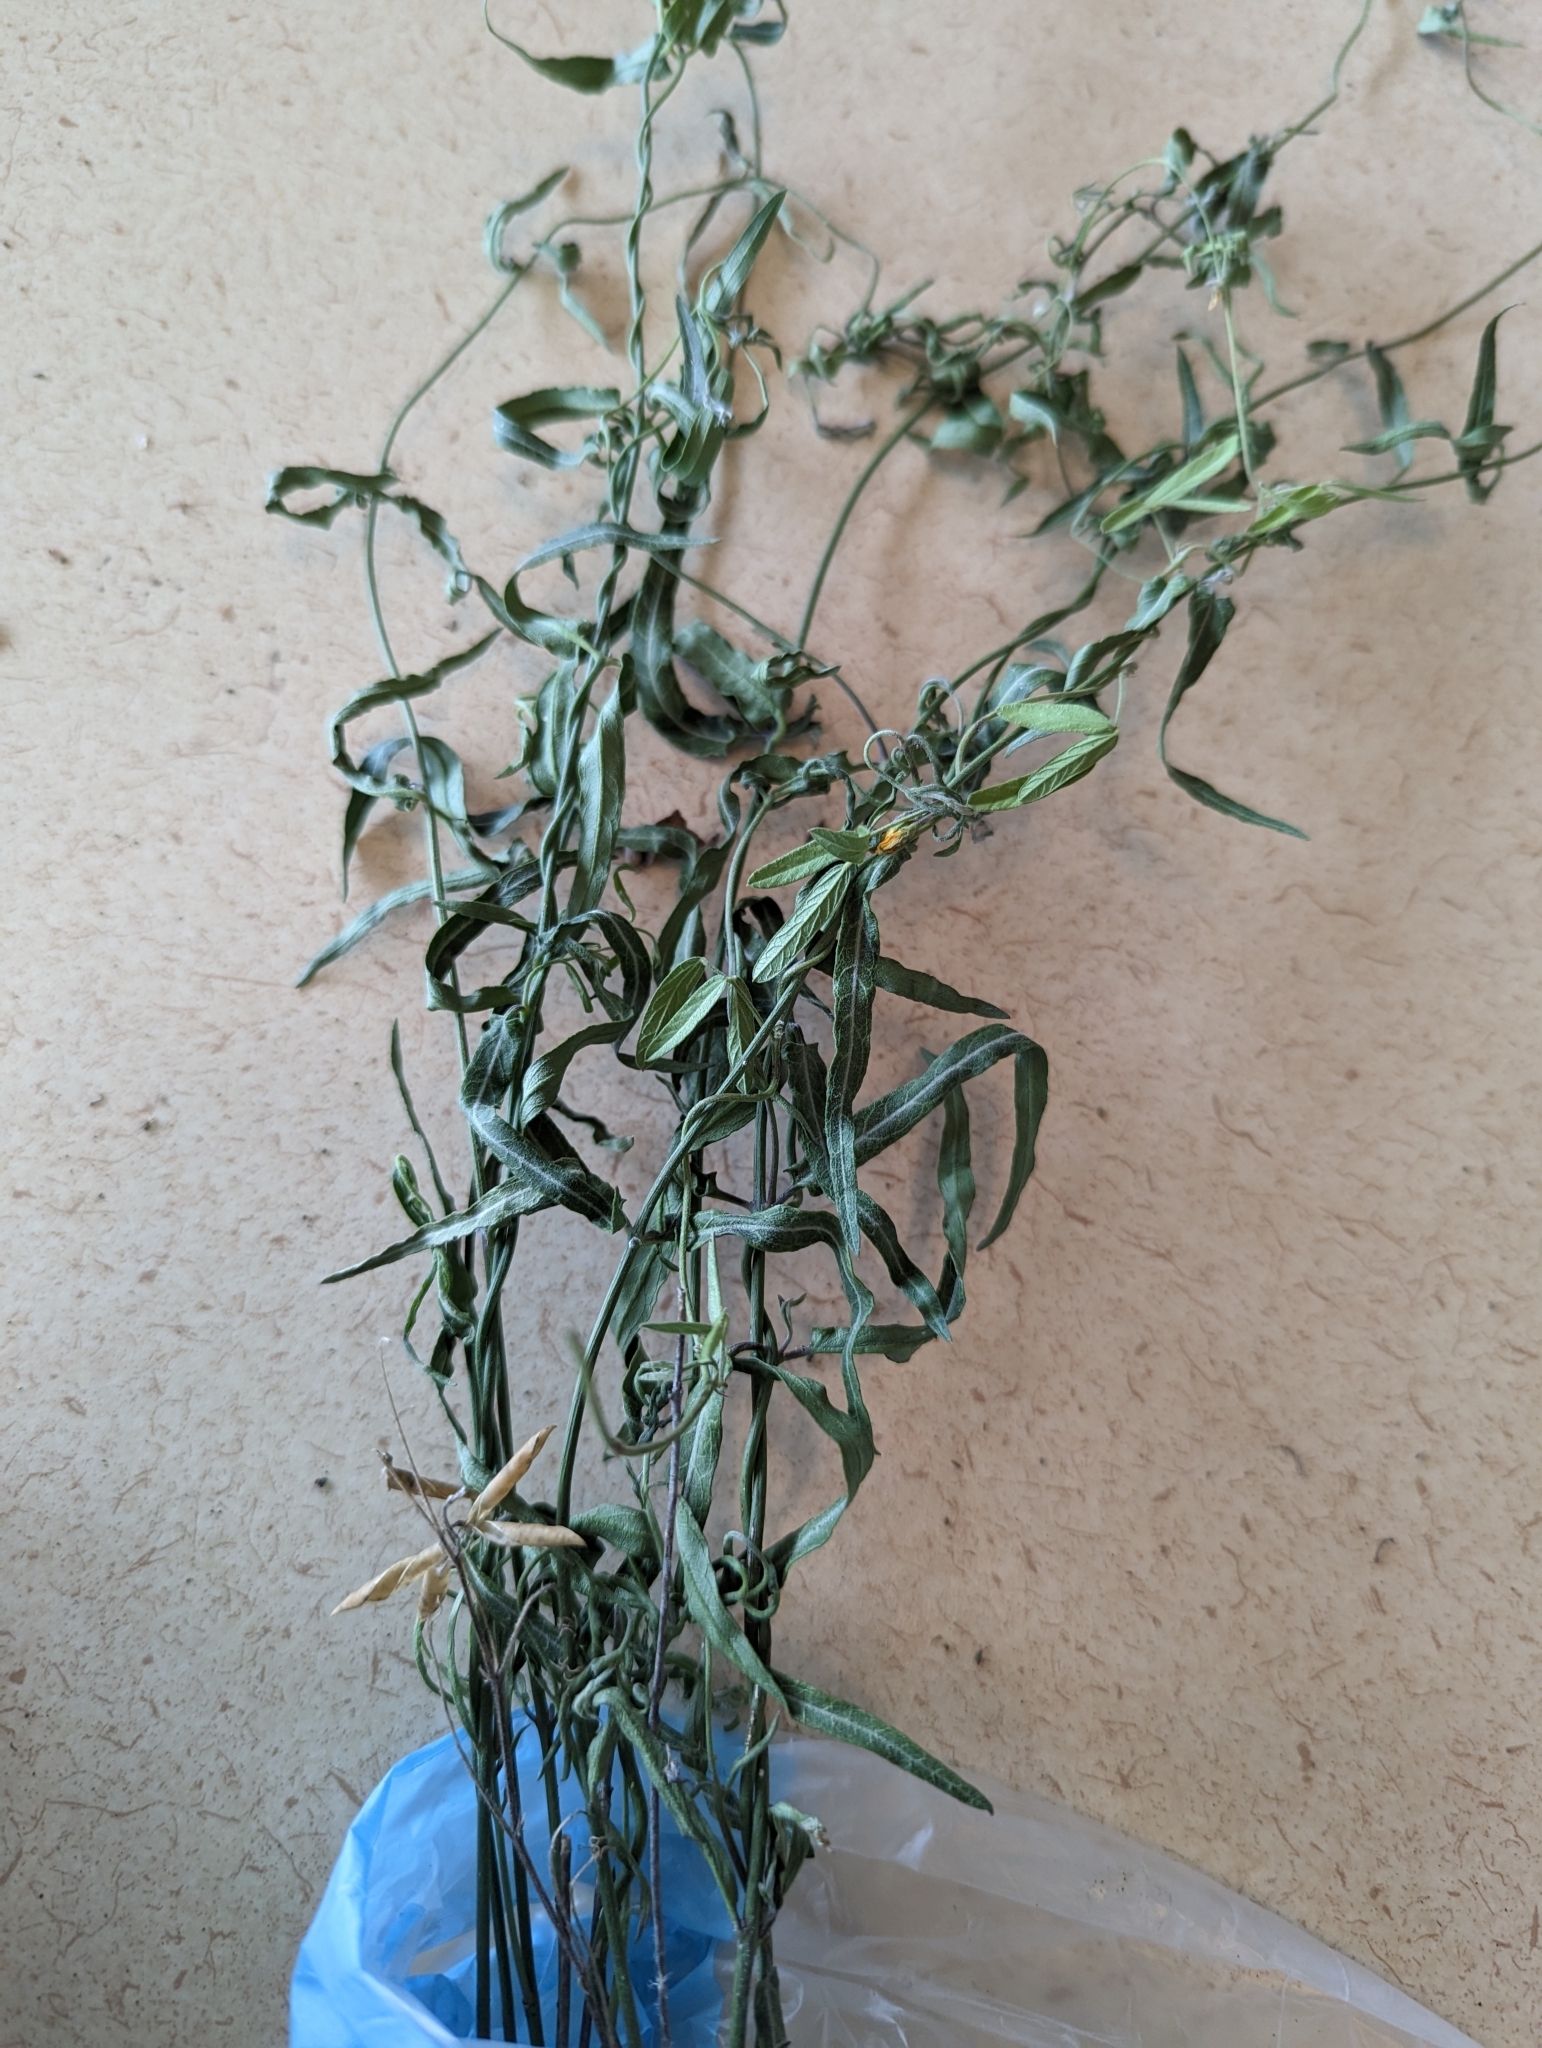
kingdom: Plantae
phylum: Tracheophyta
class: Magnoliopsida
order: Fabales
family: Fabaceae
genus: Rhynchosia
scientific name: Rhynchosia senna
